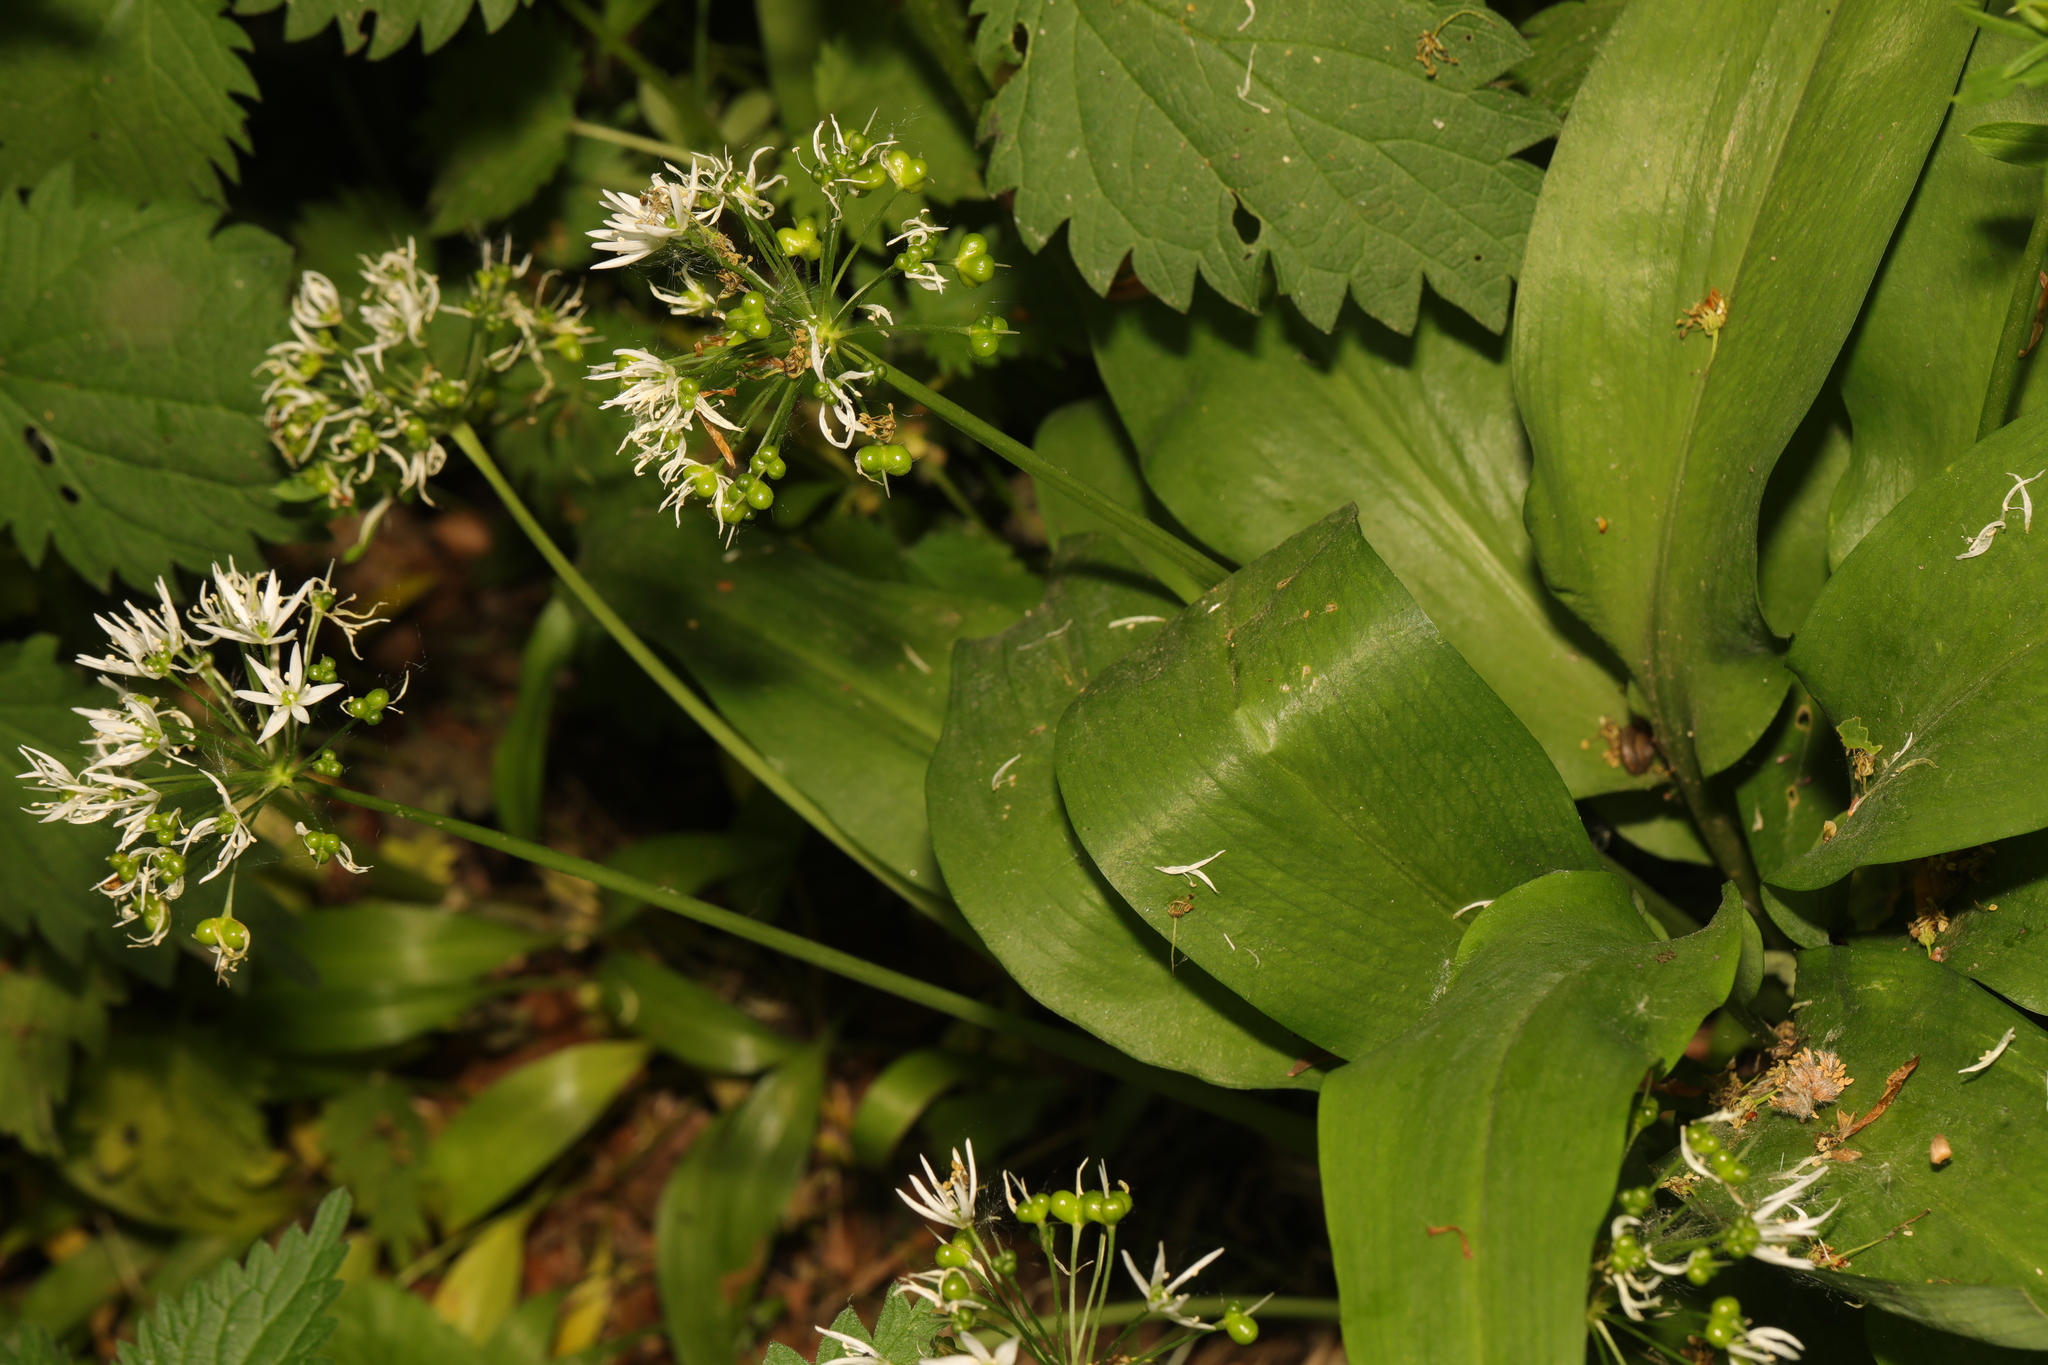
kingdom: Plantae
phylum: Tracheophyta
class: Liliopsida
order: Asparagales
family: Amaryllidaceae
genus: Allium
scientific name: Allium ursinum
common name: Ramsons
